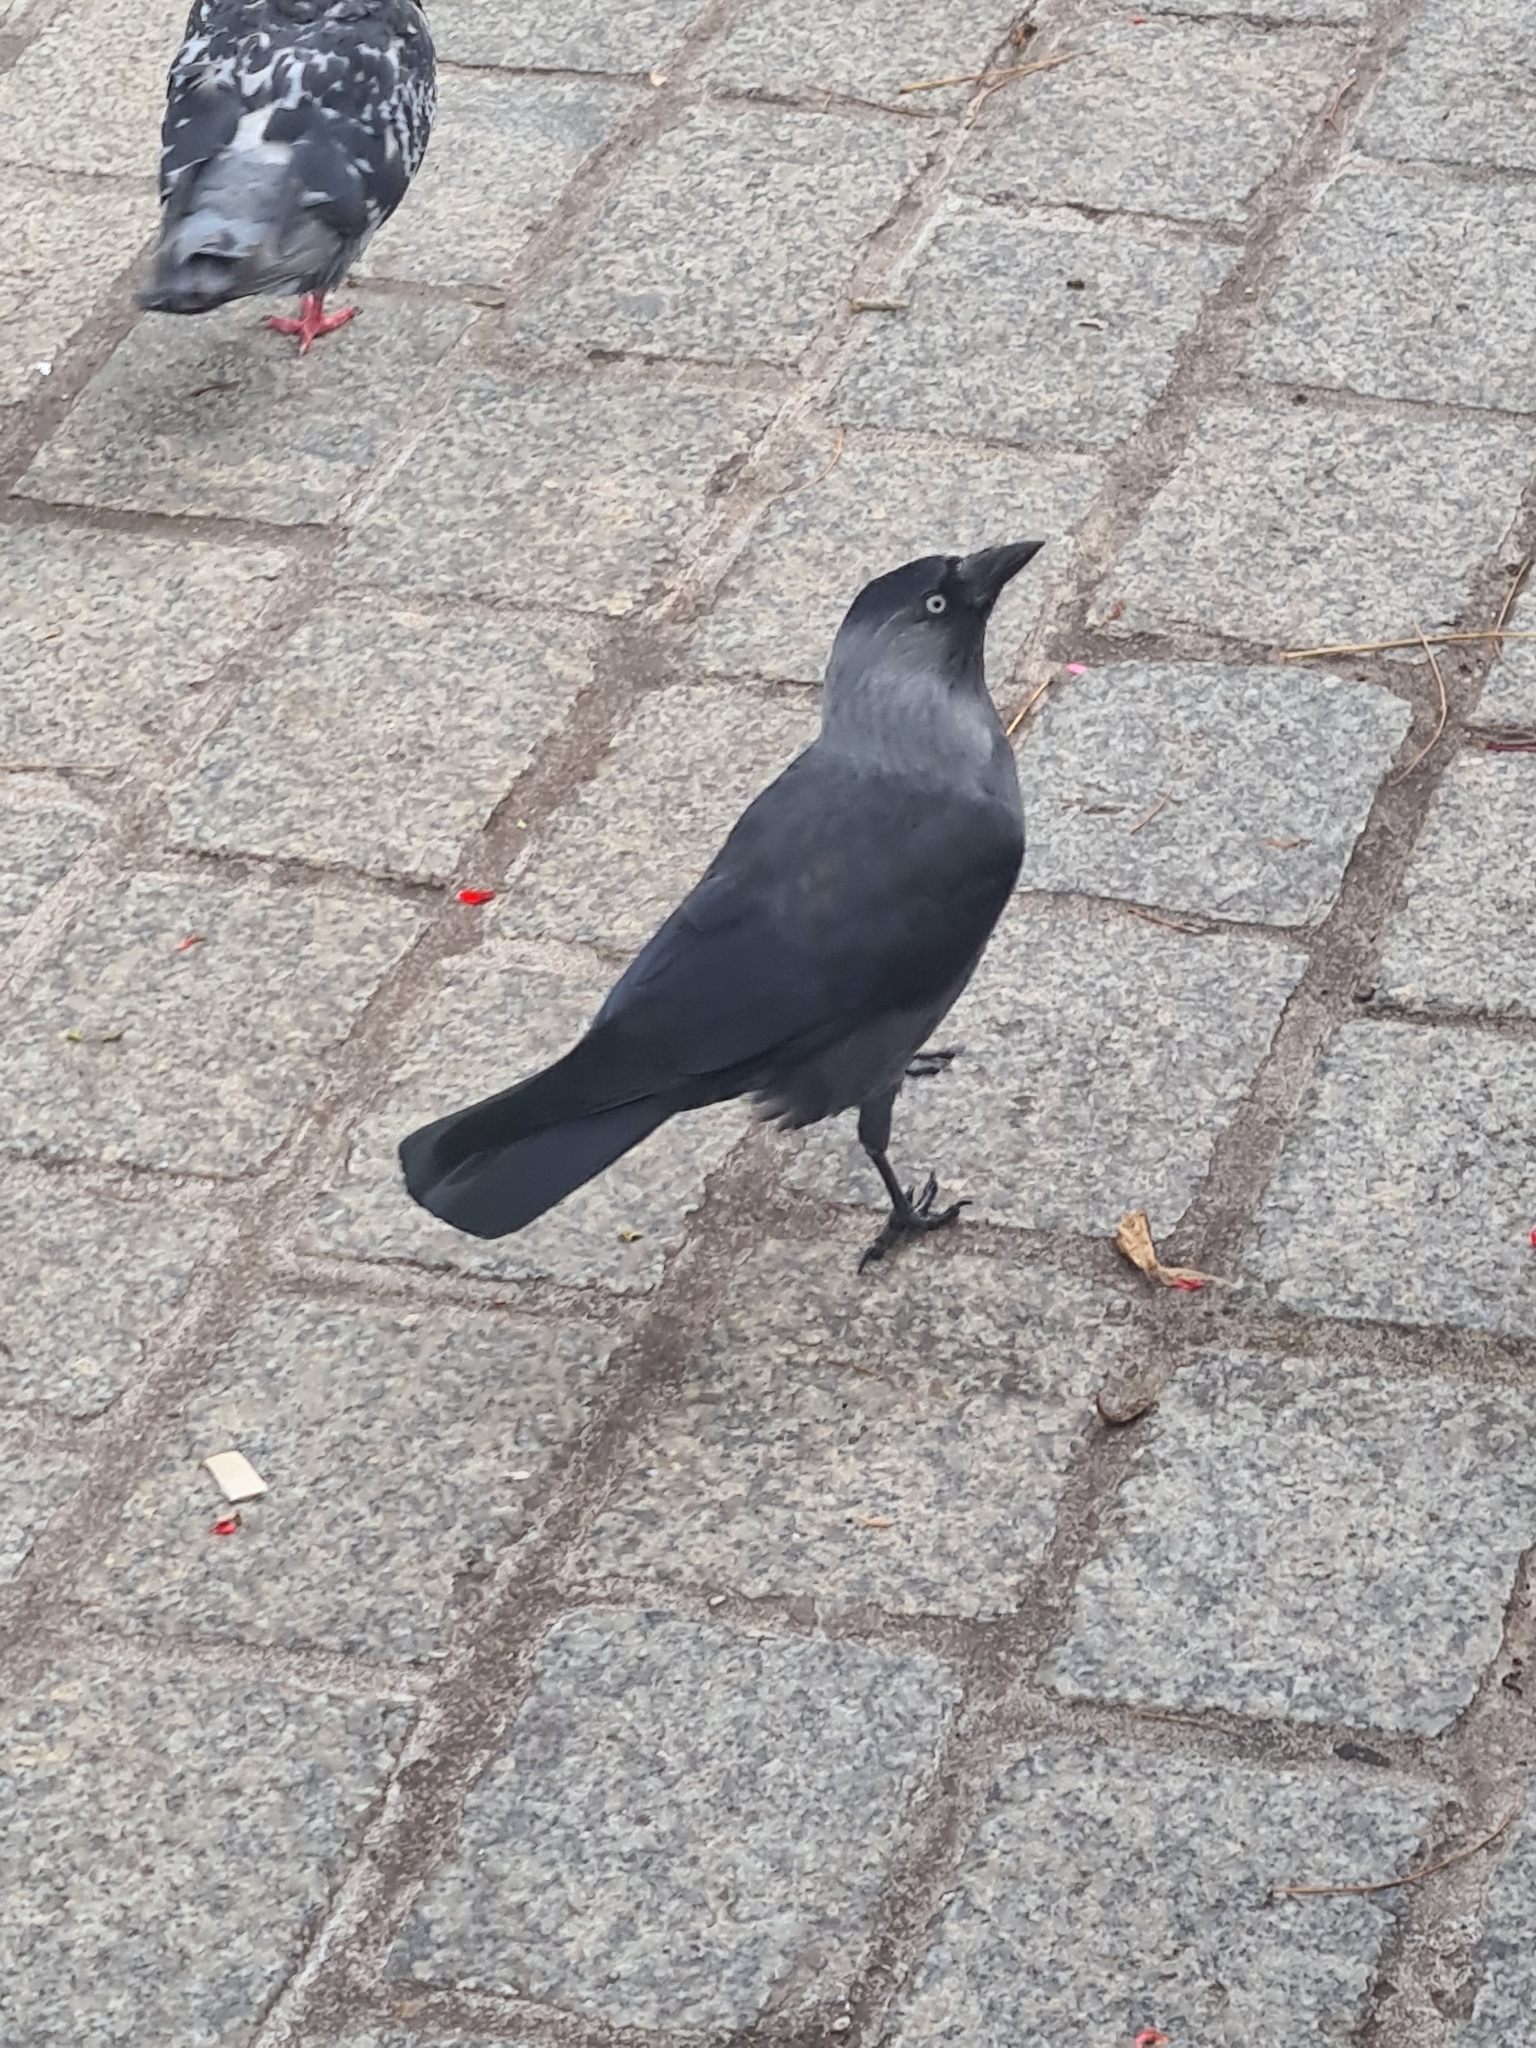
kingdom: Animalia
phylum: Chordata
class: Aves
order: Passeriformes
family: Corvidae
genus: Coloeus
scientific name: Coloeus monedula
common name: Western jackdaw
